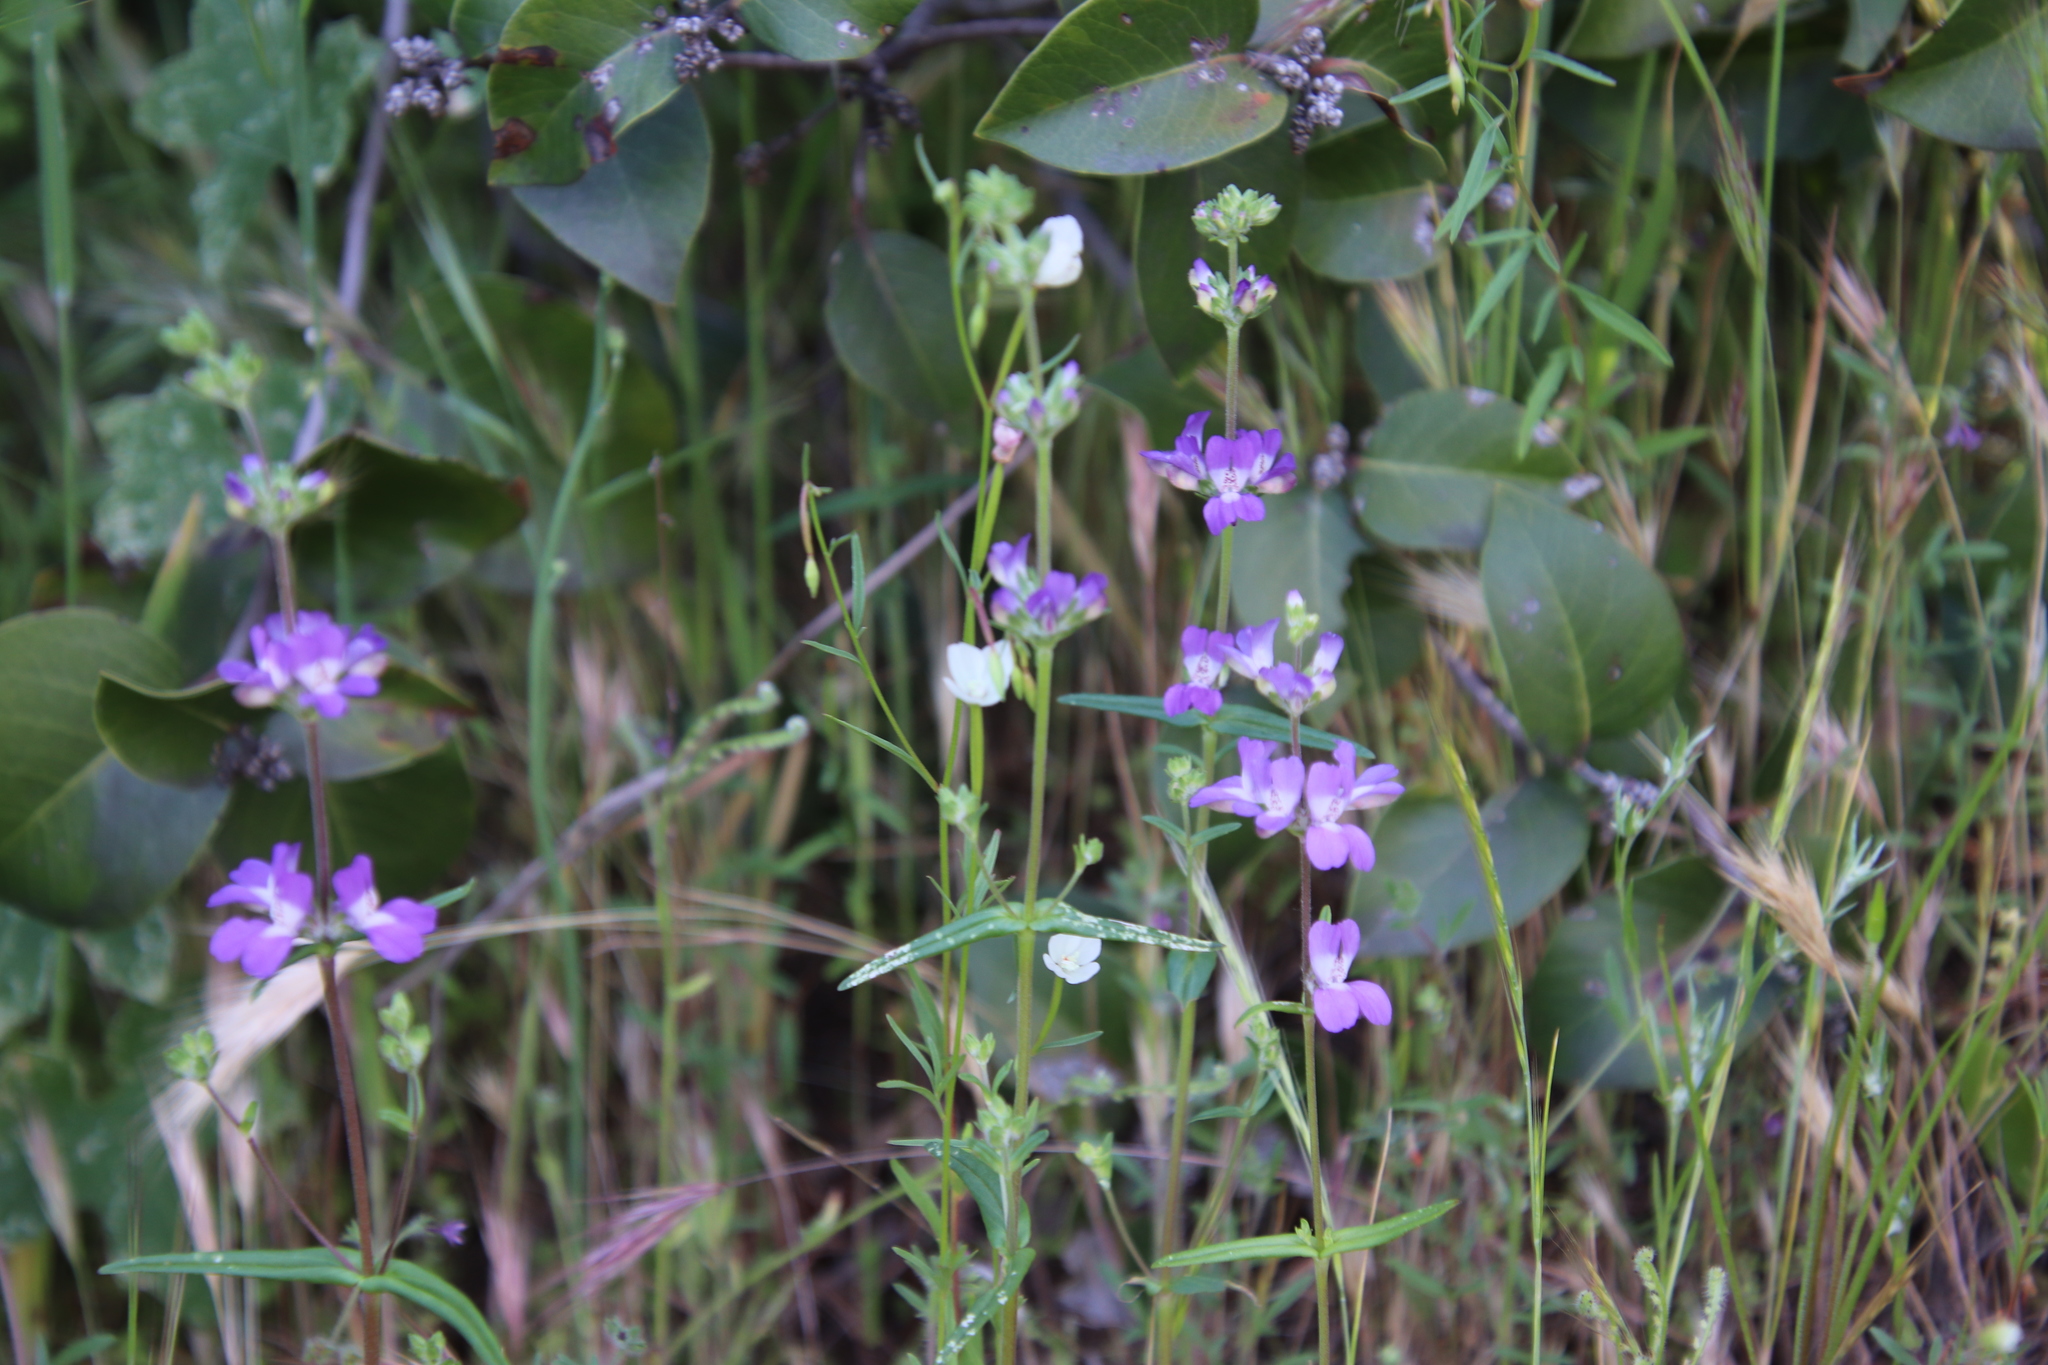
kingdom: Plantae
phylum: Tracheophyta
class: Magnoliopsida
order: Lamiales
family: Plantaginaceae
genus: Collinsia
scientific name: Collinsia heterophylla
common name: Chinese-houses
